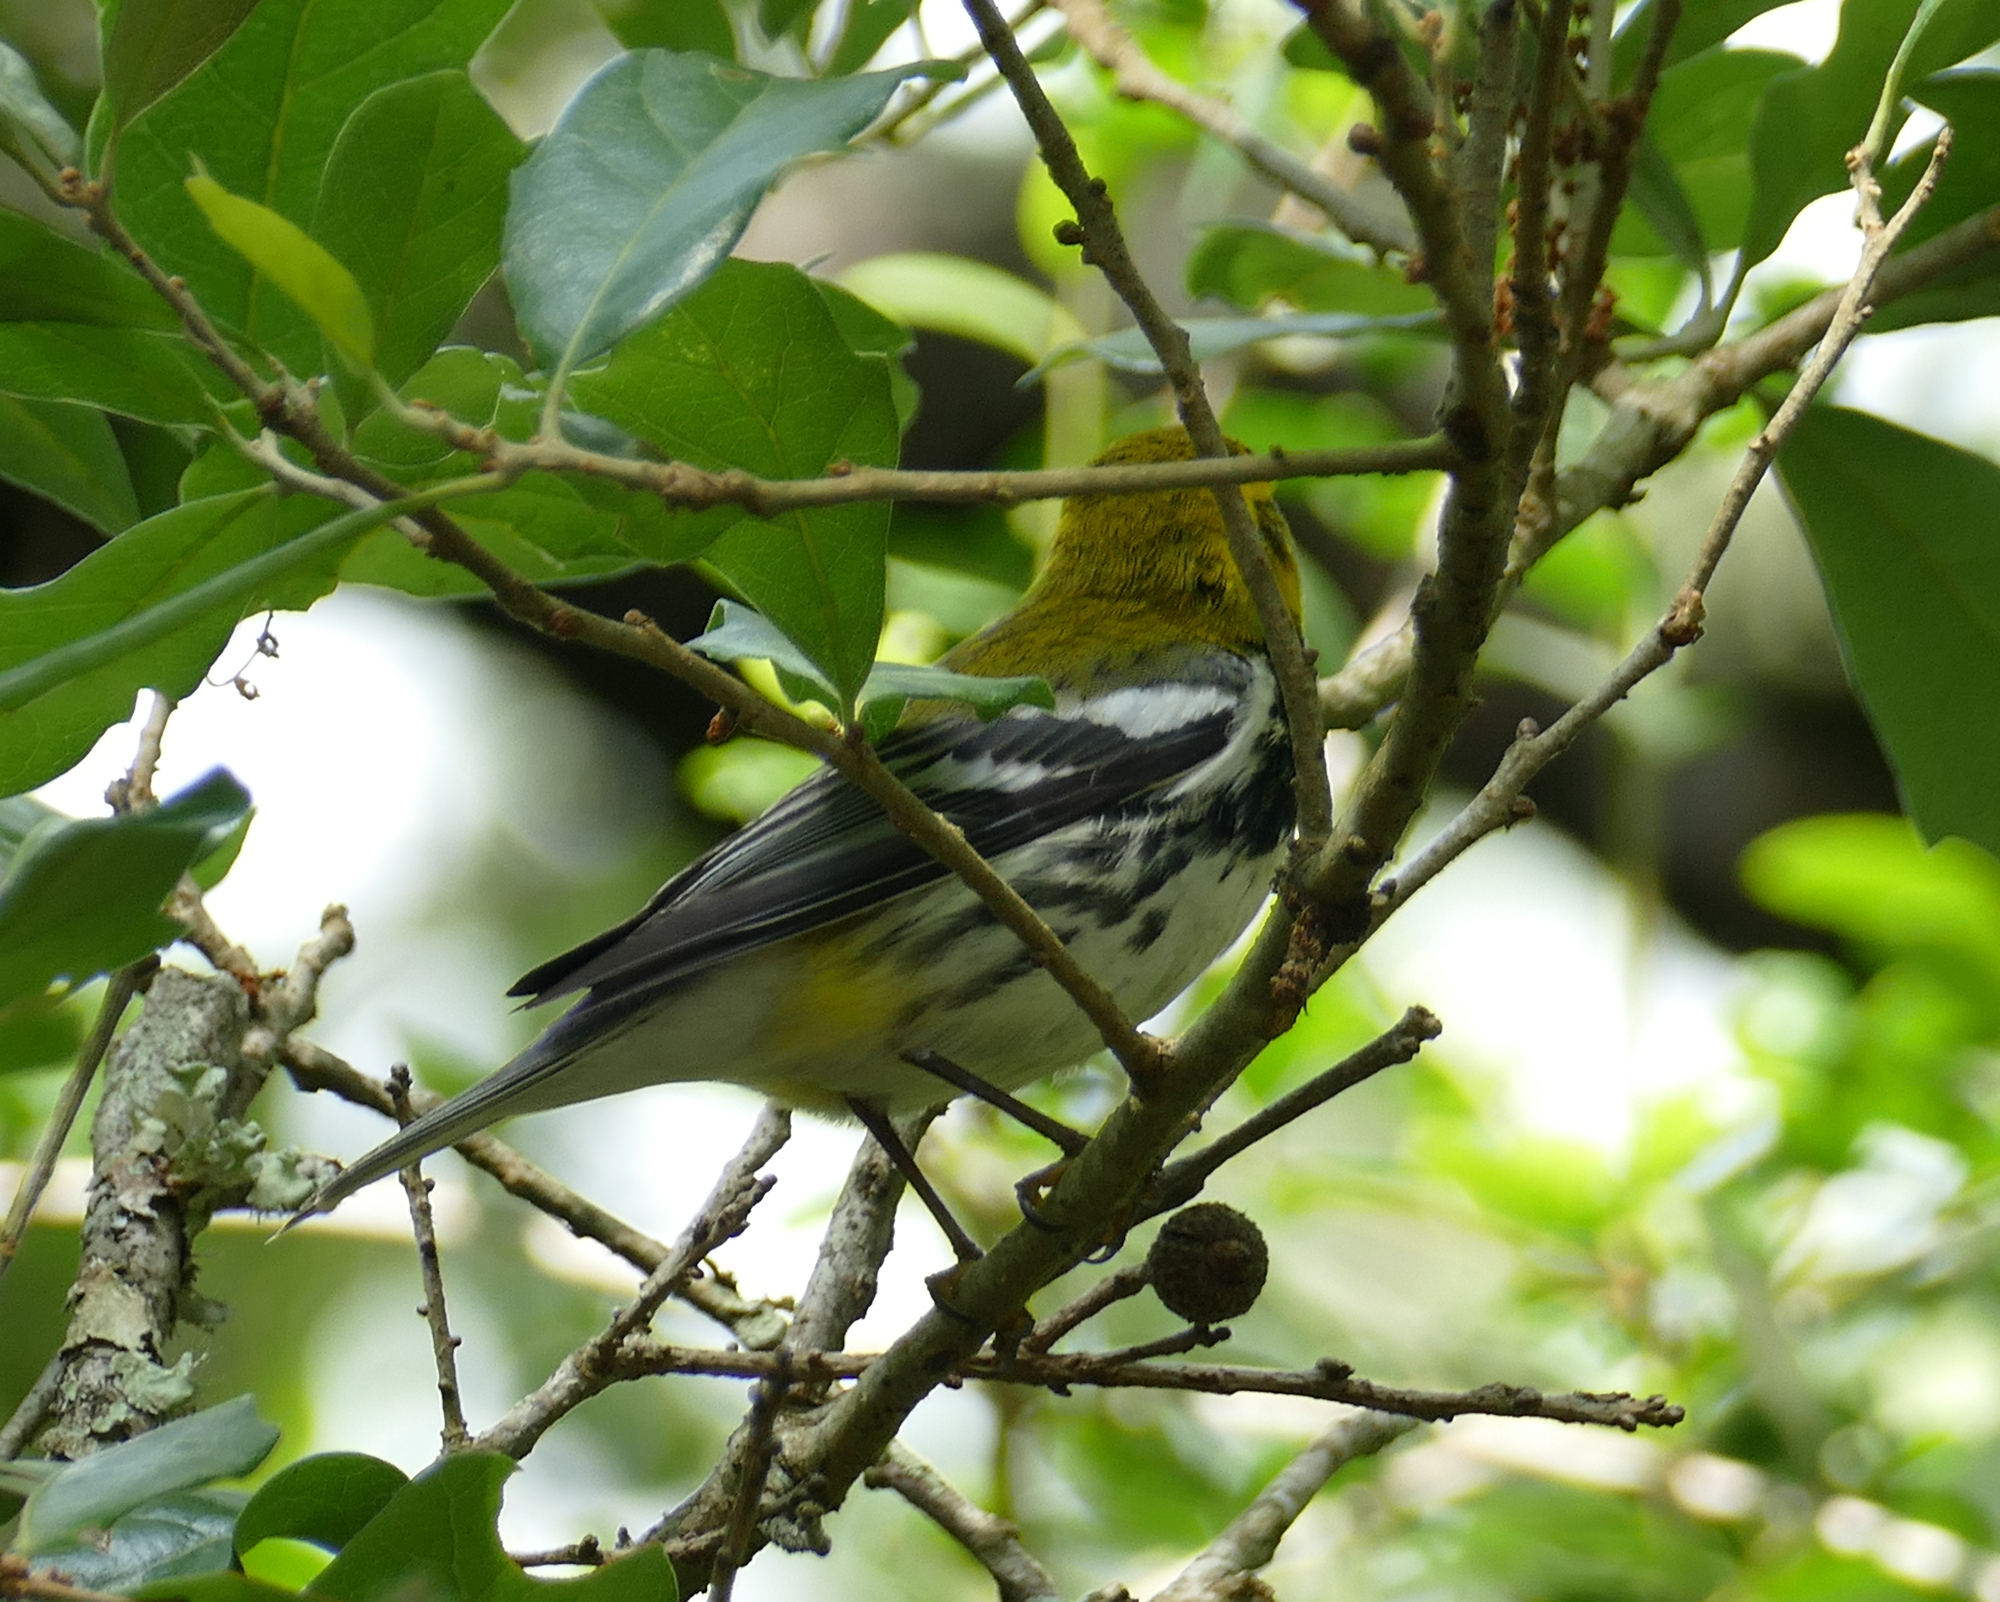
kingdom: Animalia
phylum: Chordata
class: Aves
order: Passeriformes
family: Parulidae
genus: Setophaga
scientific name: Setophaga virens
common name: Black-throated green warbler
